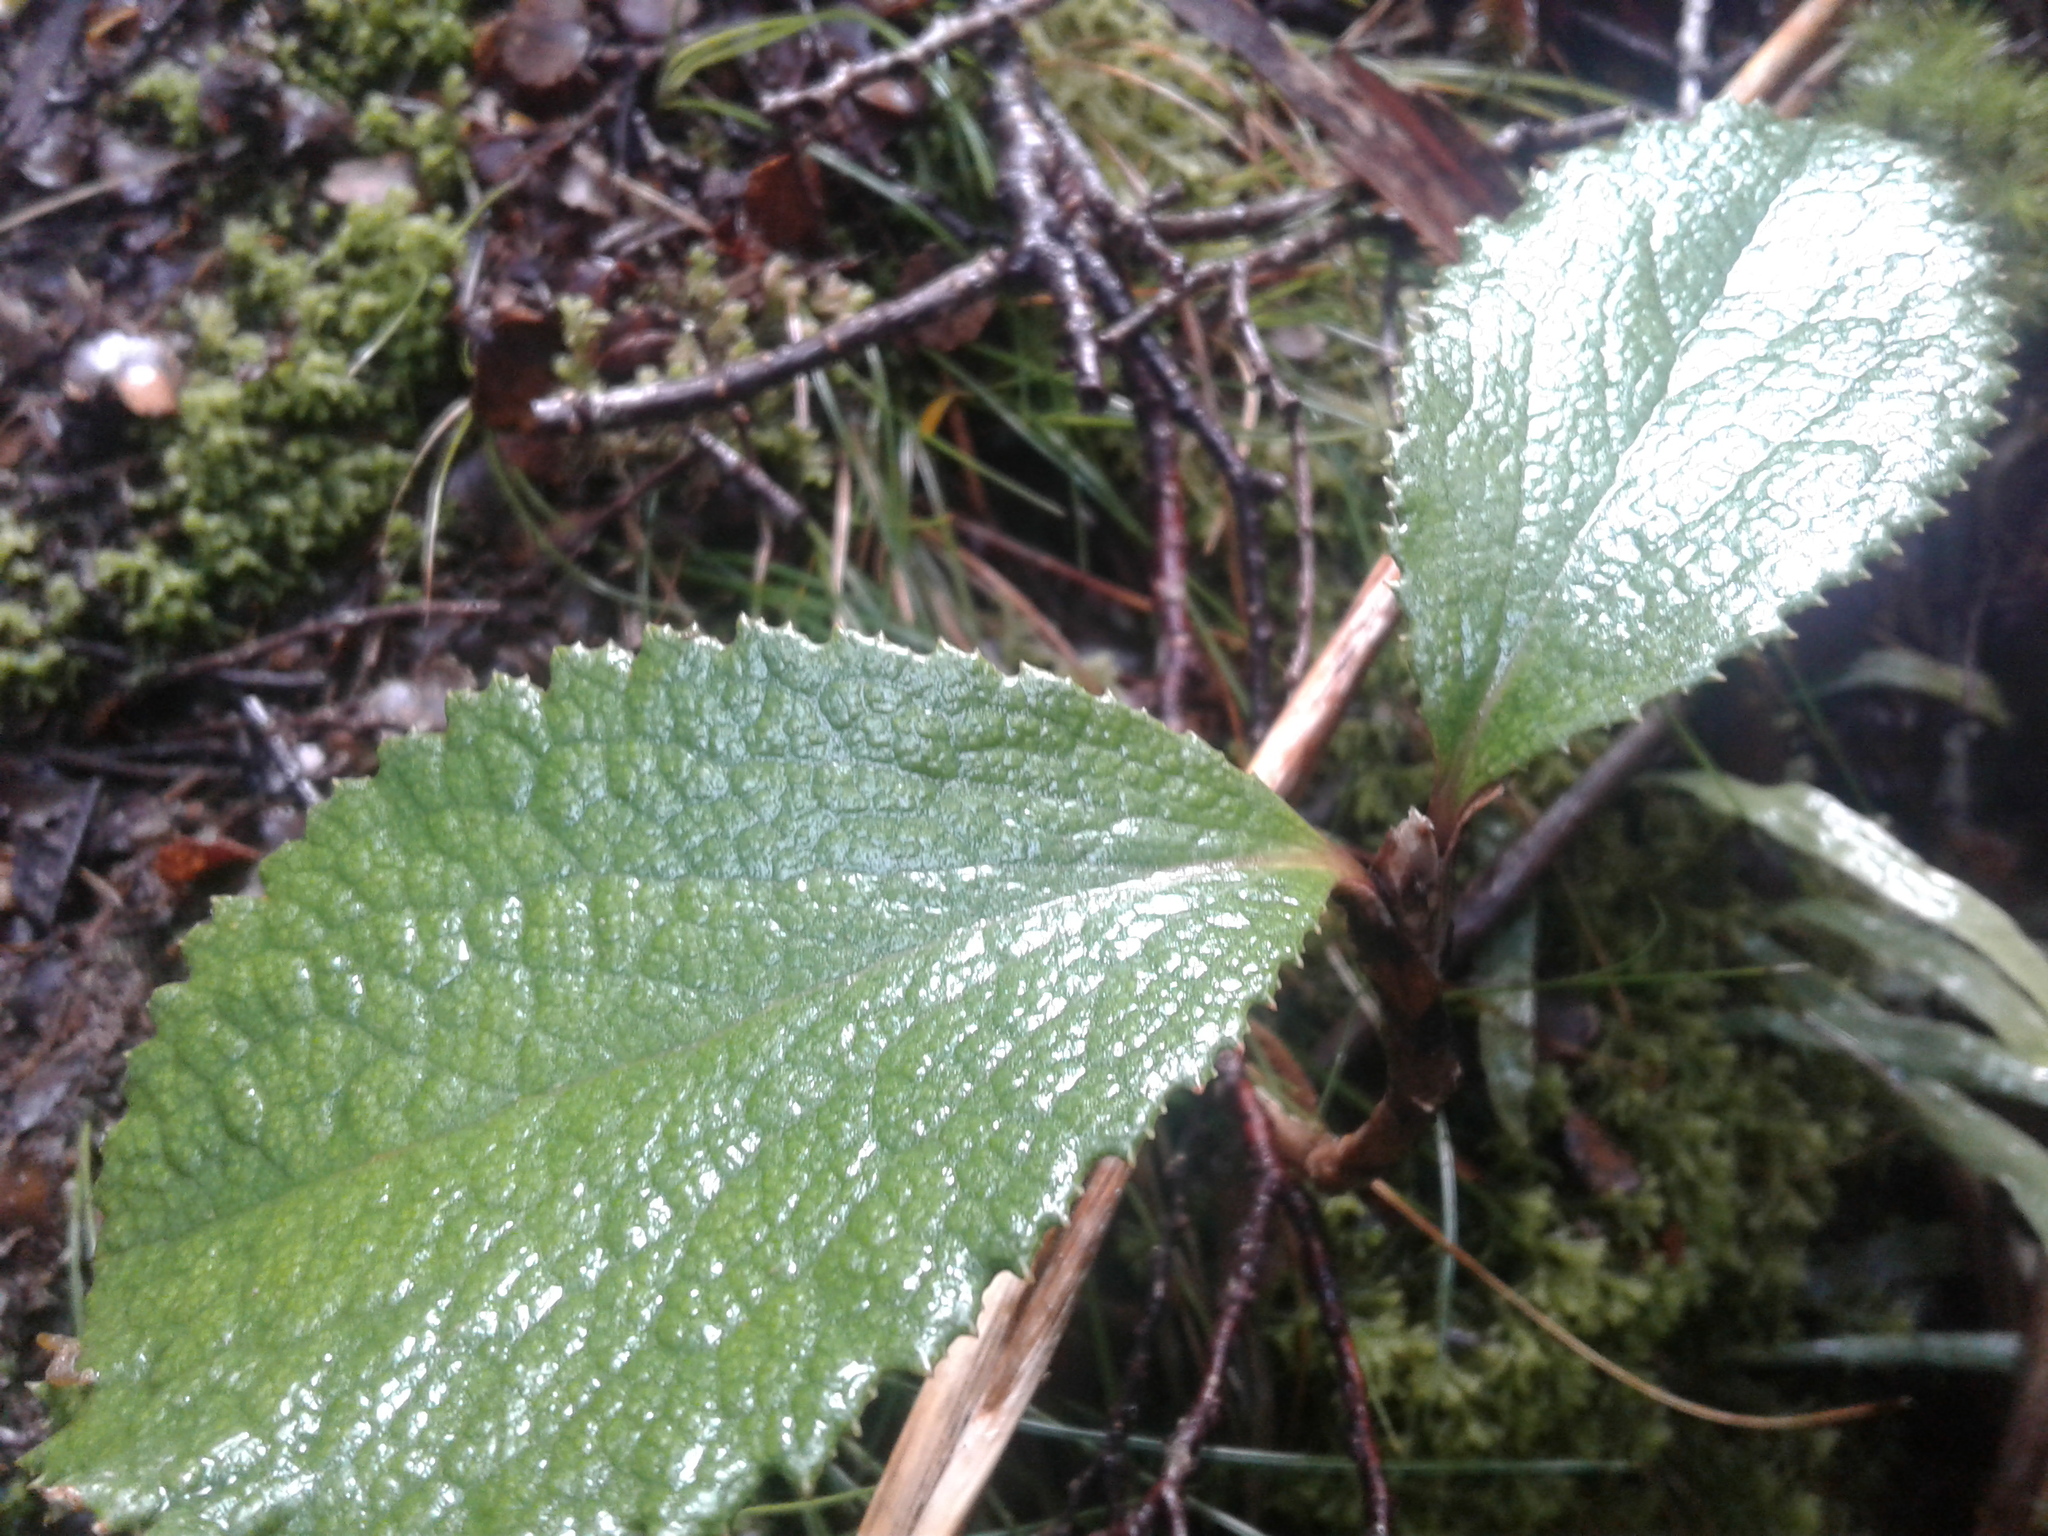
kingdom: Plantae
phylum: Tracheophyta
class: Magnoliopsida
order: Asterales
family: Asteraceae
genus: Macrolearia
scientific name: Macrolearia colensoi
